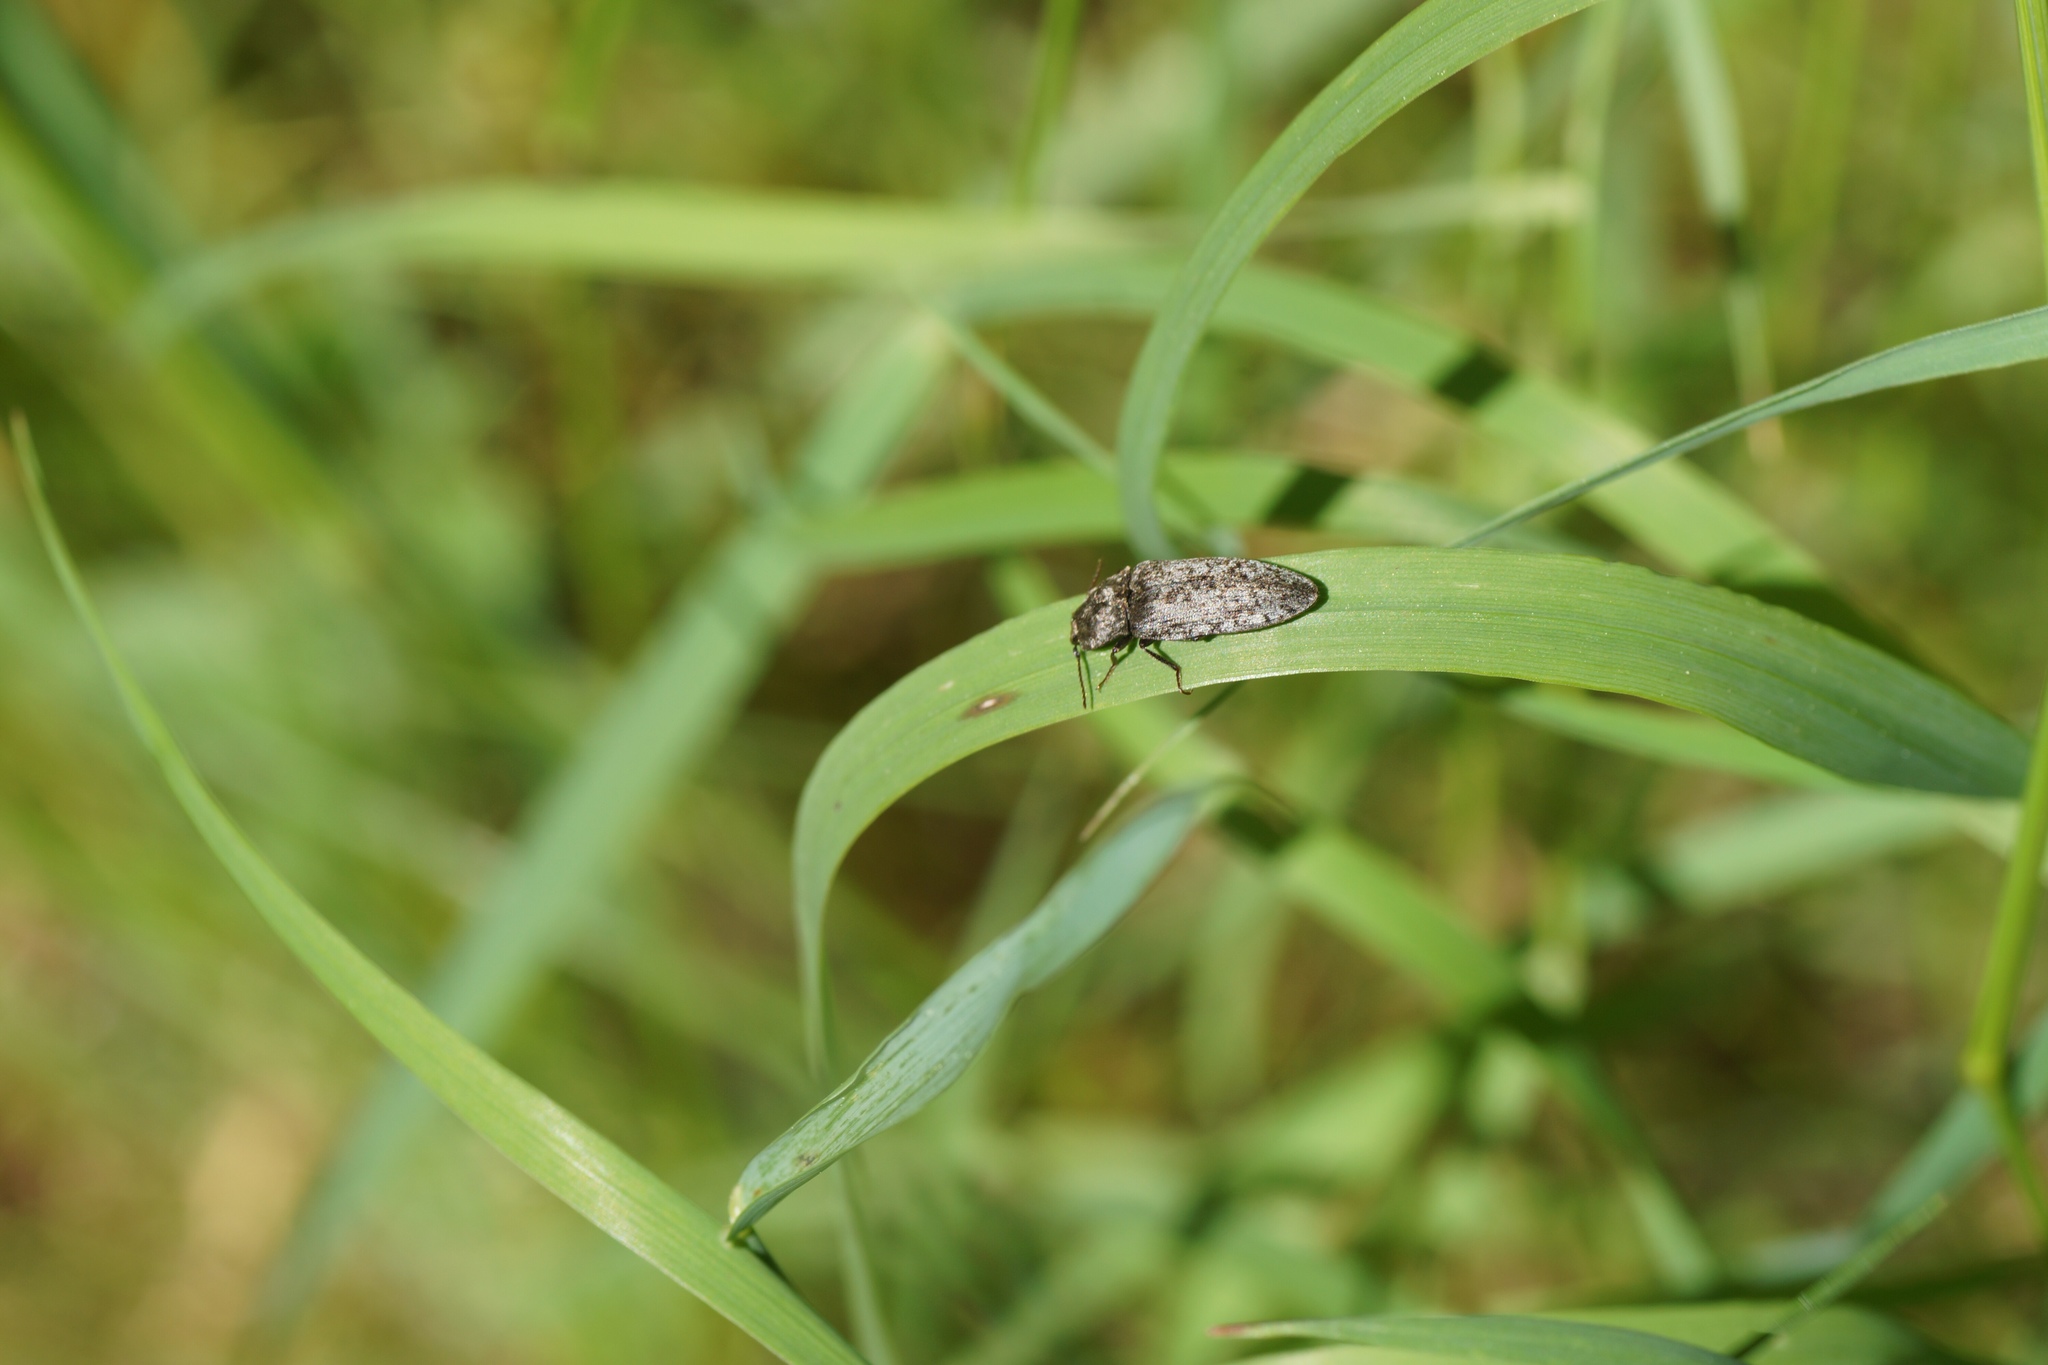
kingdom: Animalia
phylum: Arthropoda
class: Insecta
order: Coleoptera
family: Elateridae
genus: Agrypnus
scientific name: Agrypnus murinus
